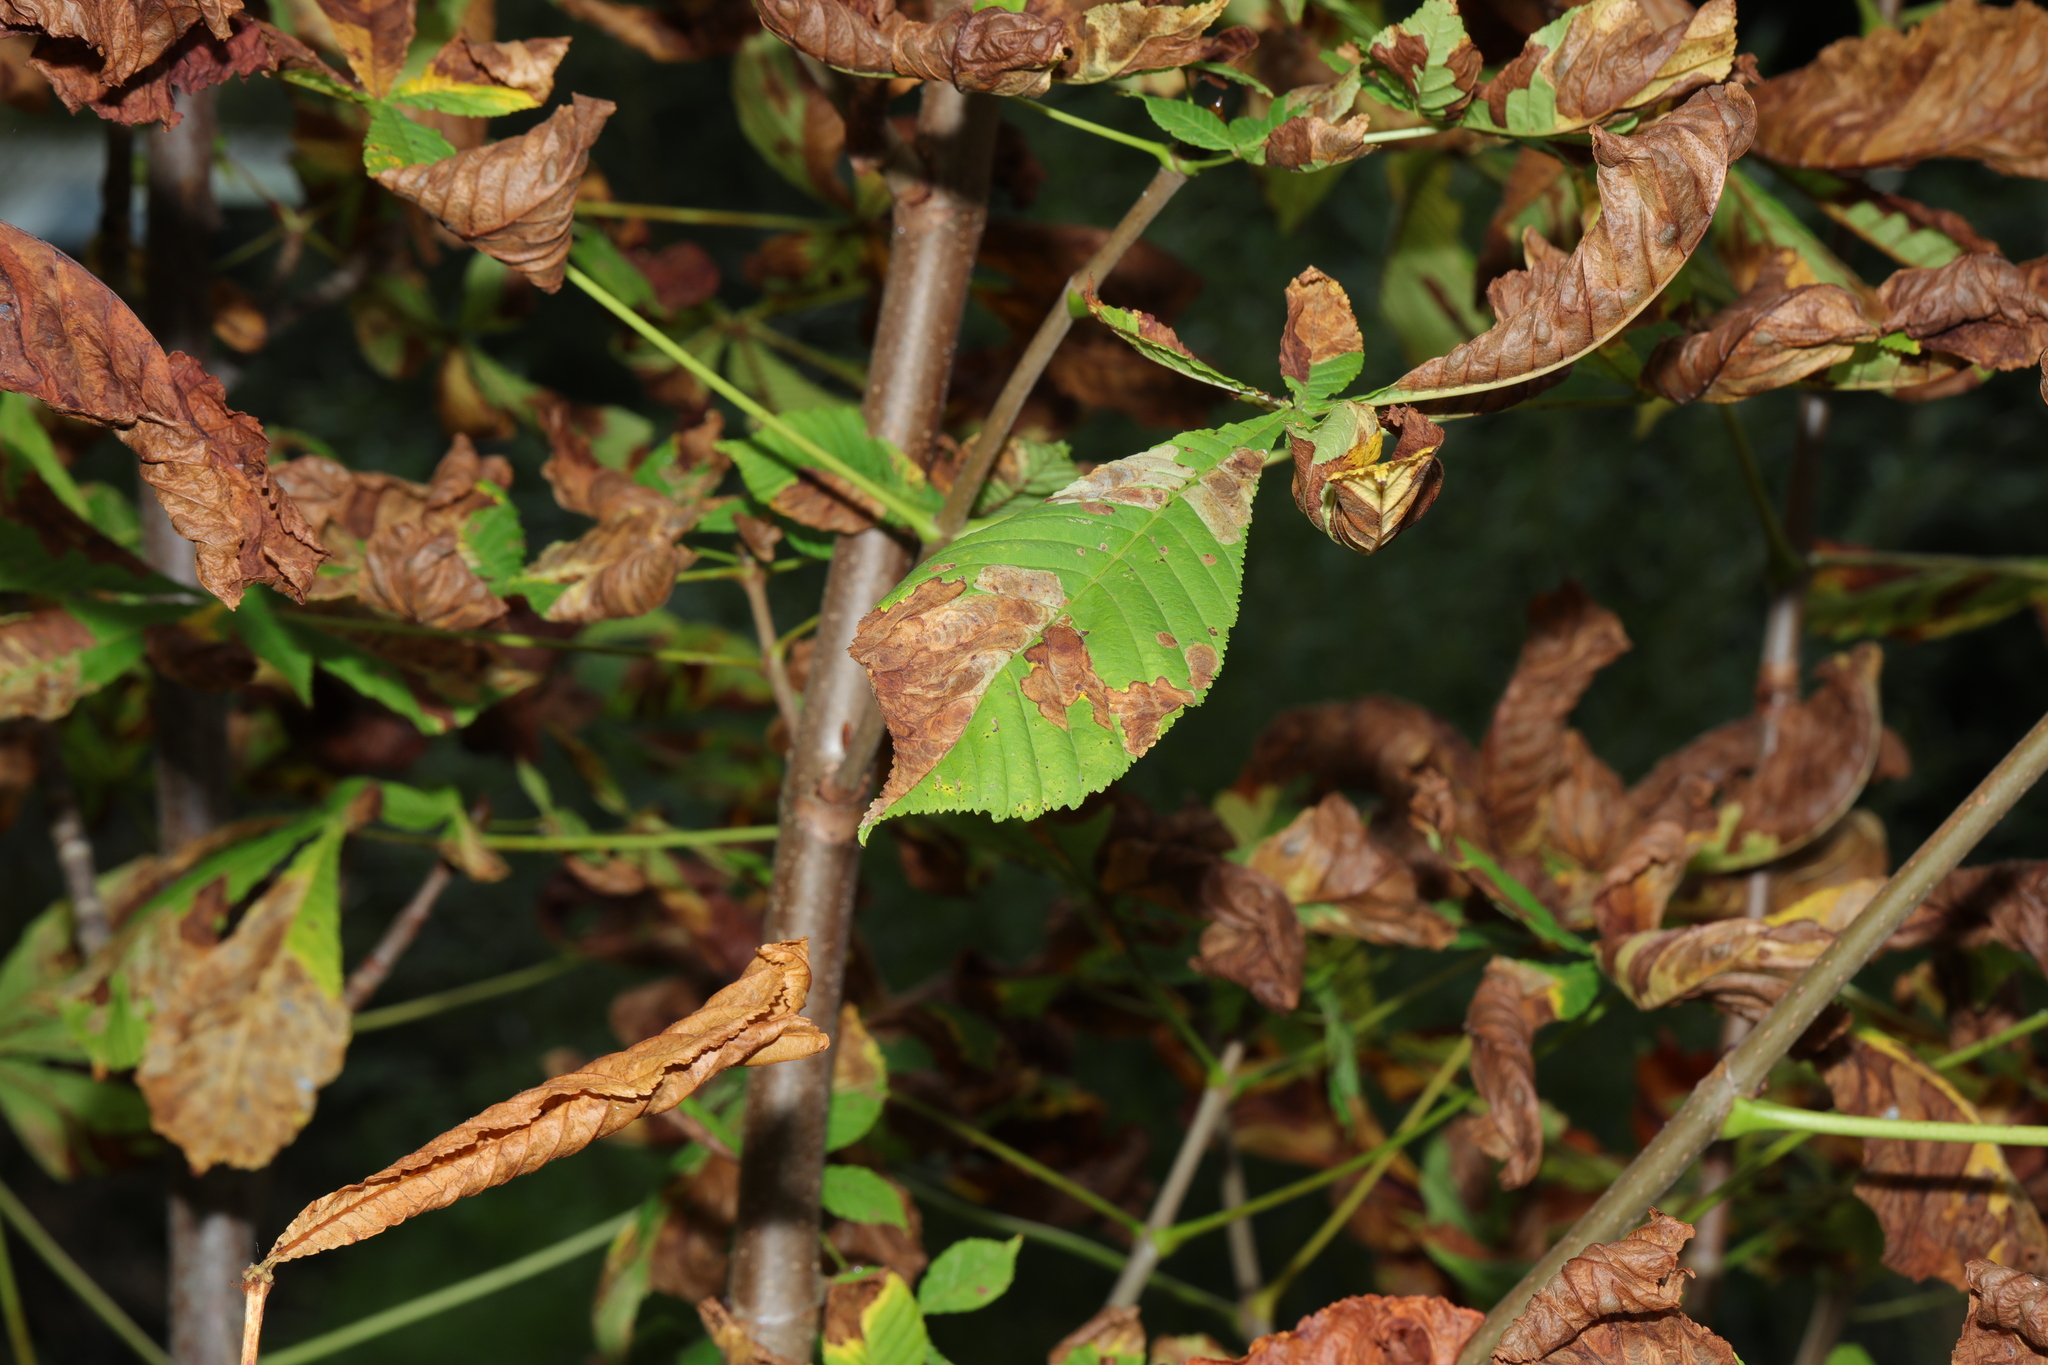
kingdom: Animalia
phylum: Arthropoda
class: Insecta
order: Lepidoptera
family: Gracillariidae
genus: Cameraria
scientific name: Cameraria ohridella
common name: Horse-chestnut leaf-miner
